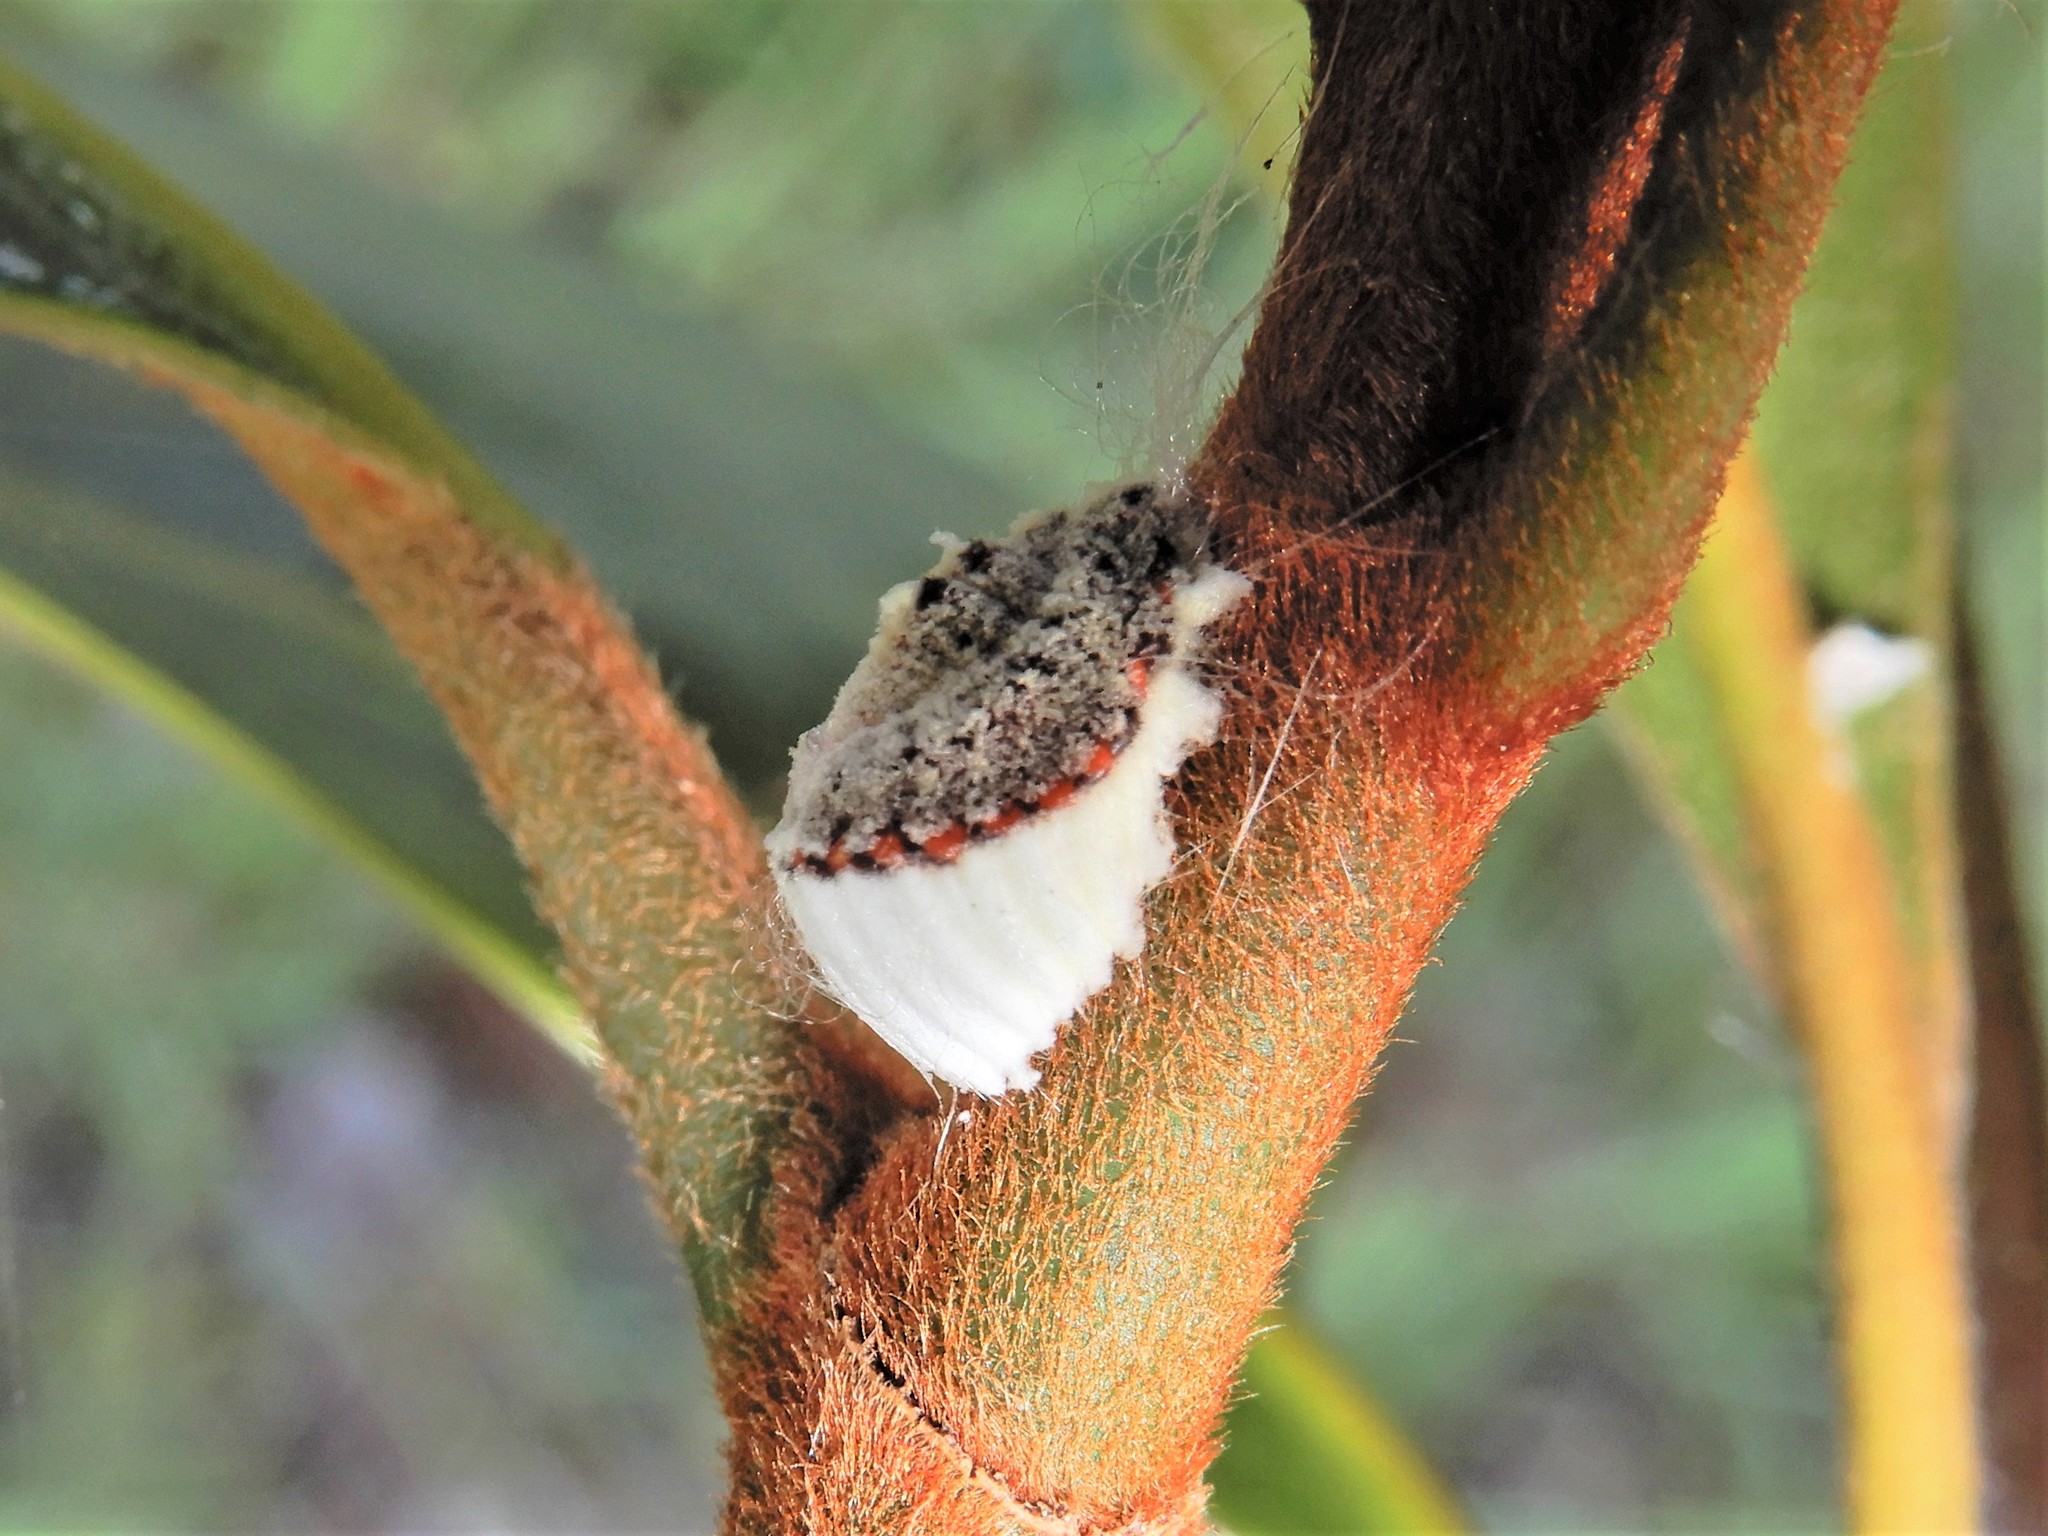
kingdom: Animalia
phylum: Arthropoda
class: Insecta
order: Hemiptera
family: Margarodidae
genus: Icerya
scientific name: Icerya purchasi
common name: Cottony cushion scale
